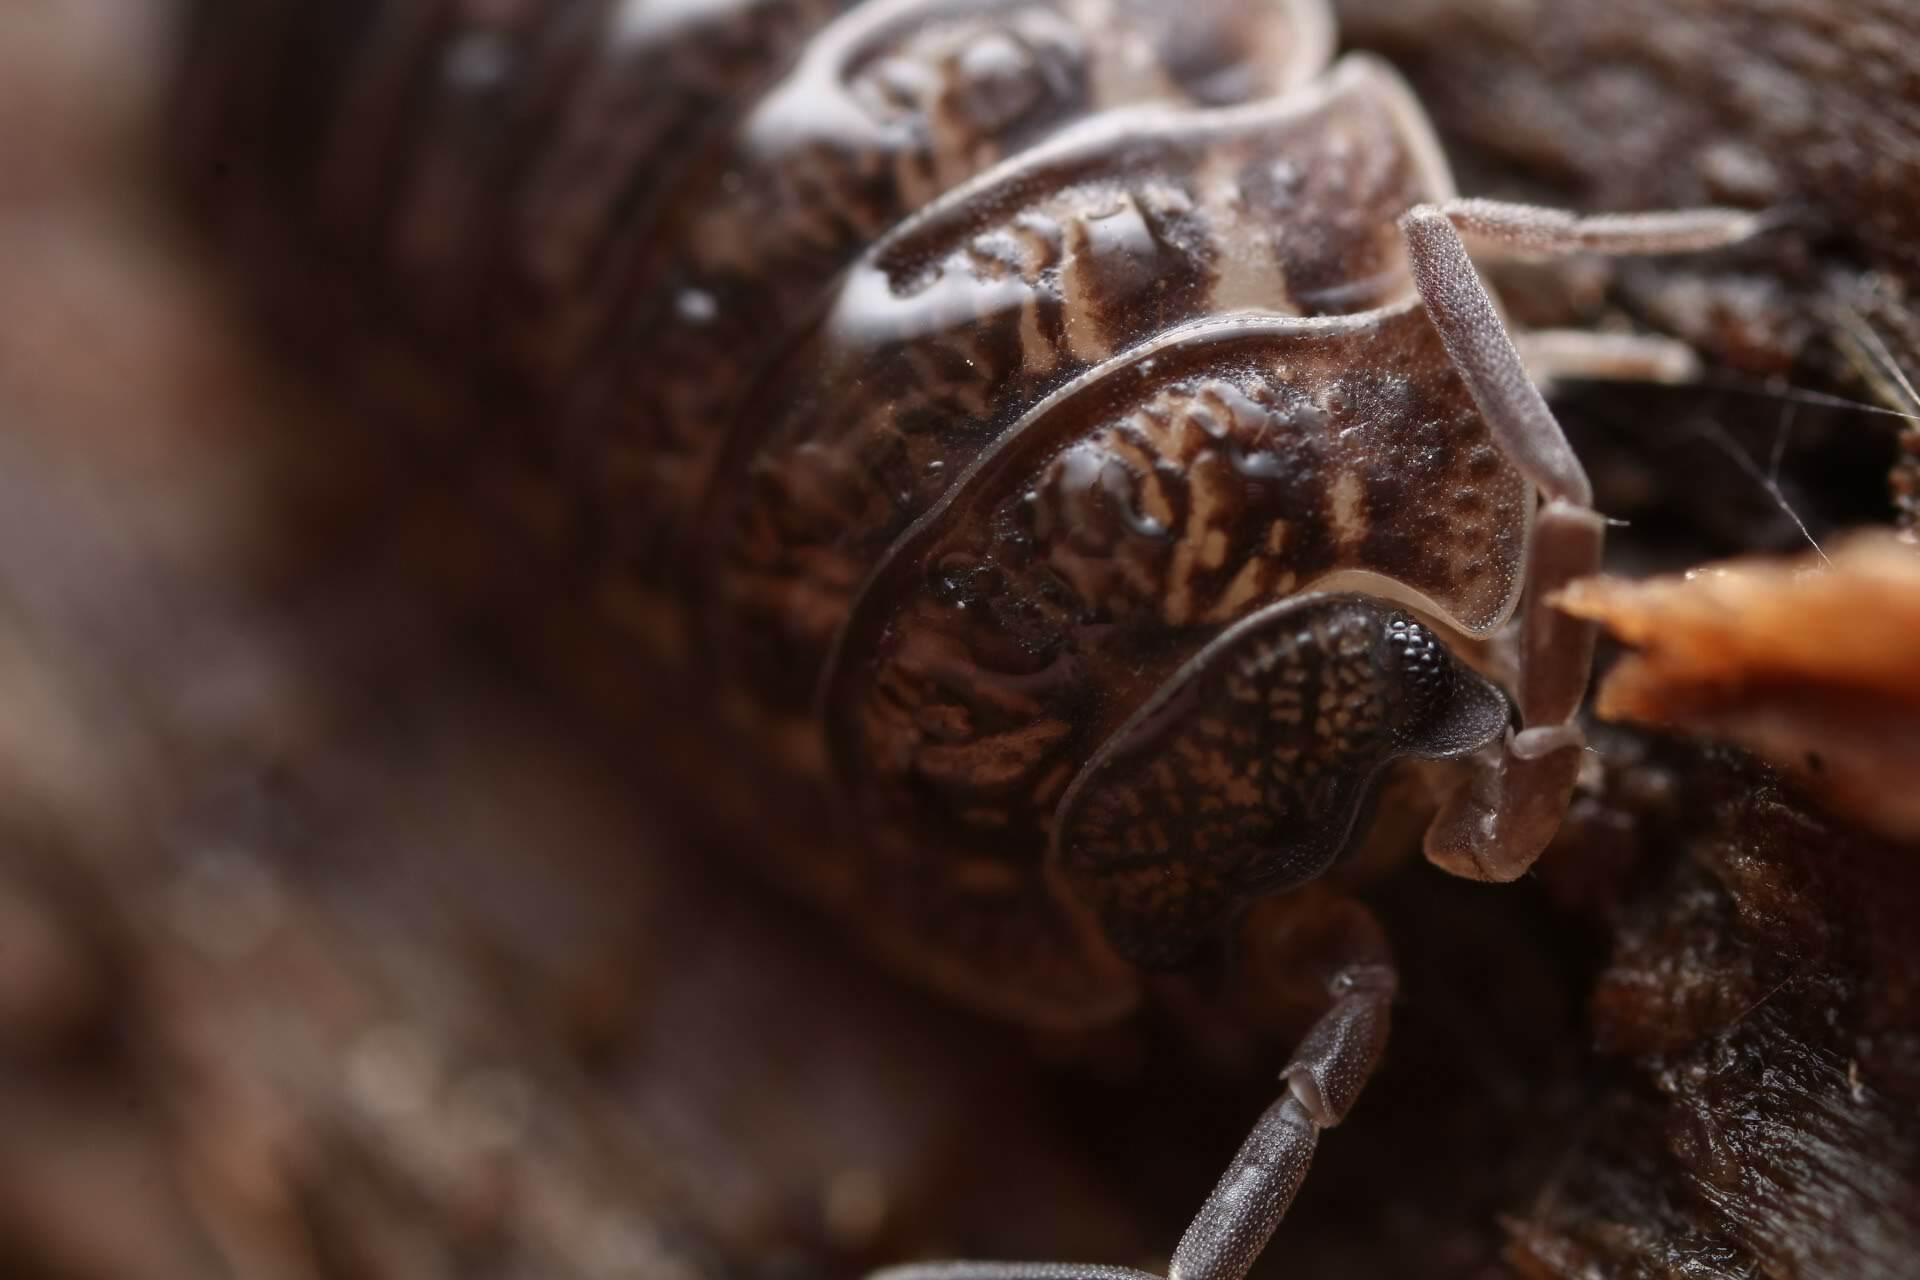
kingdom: Animalia
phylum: Arthropoda
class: Malacostraca
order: Isopoda
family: Trachelipodidae
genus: Trachelipus
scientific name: Trachelipus rathkii
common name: Isopod
